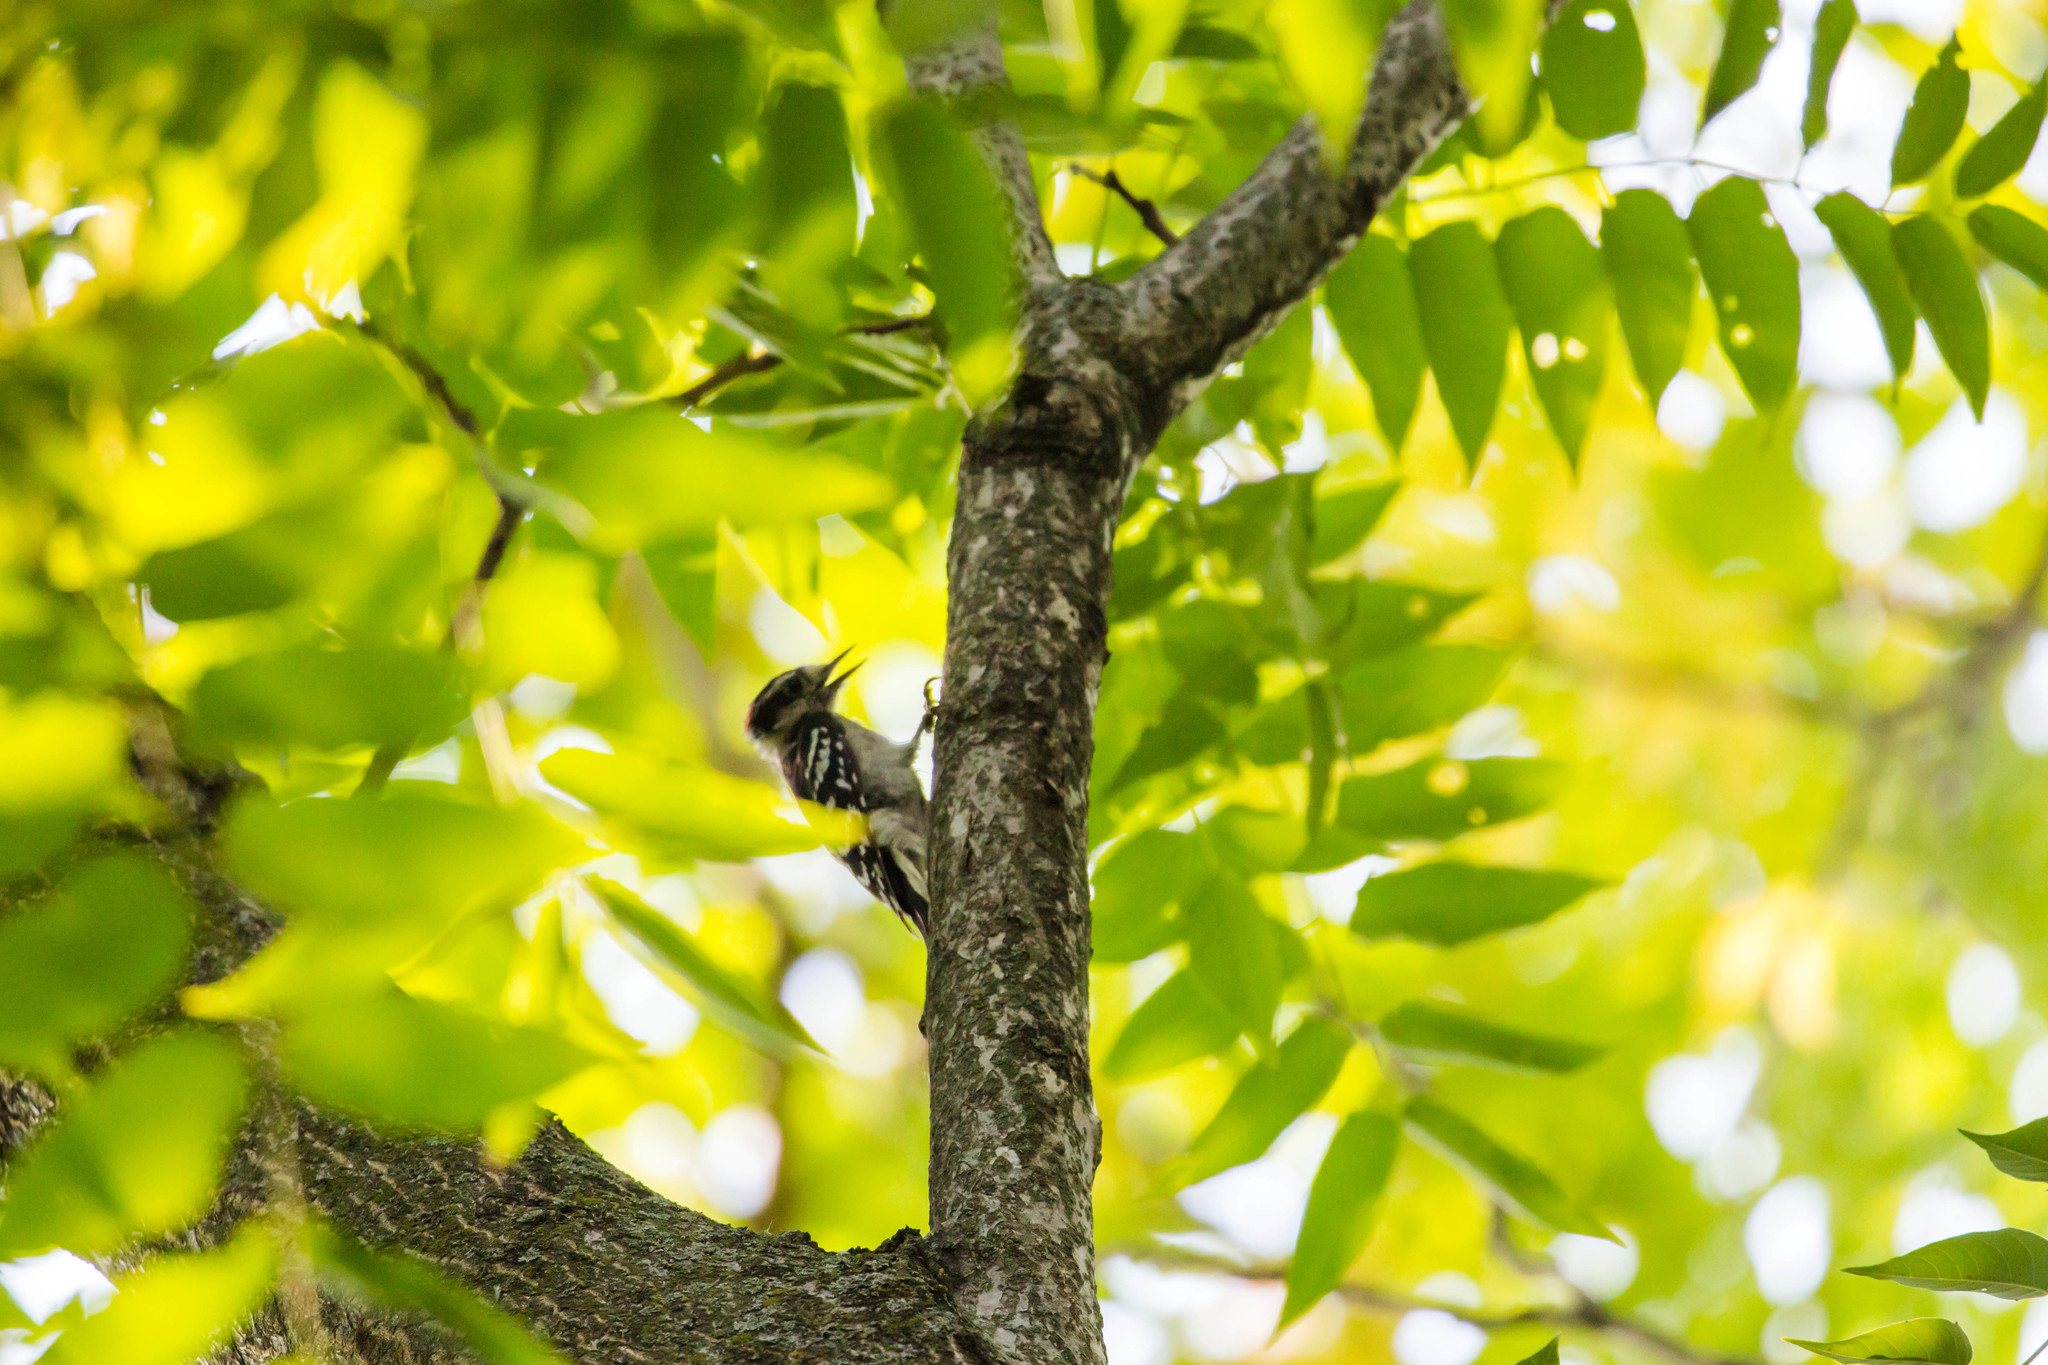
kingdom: Animalia
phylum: Chordata
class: Aves
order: Piciformes
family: Picidae
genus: Dryobates
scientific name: Dryobates pubescens
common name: Downy woodpecker
